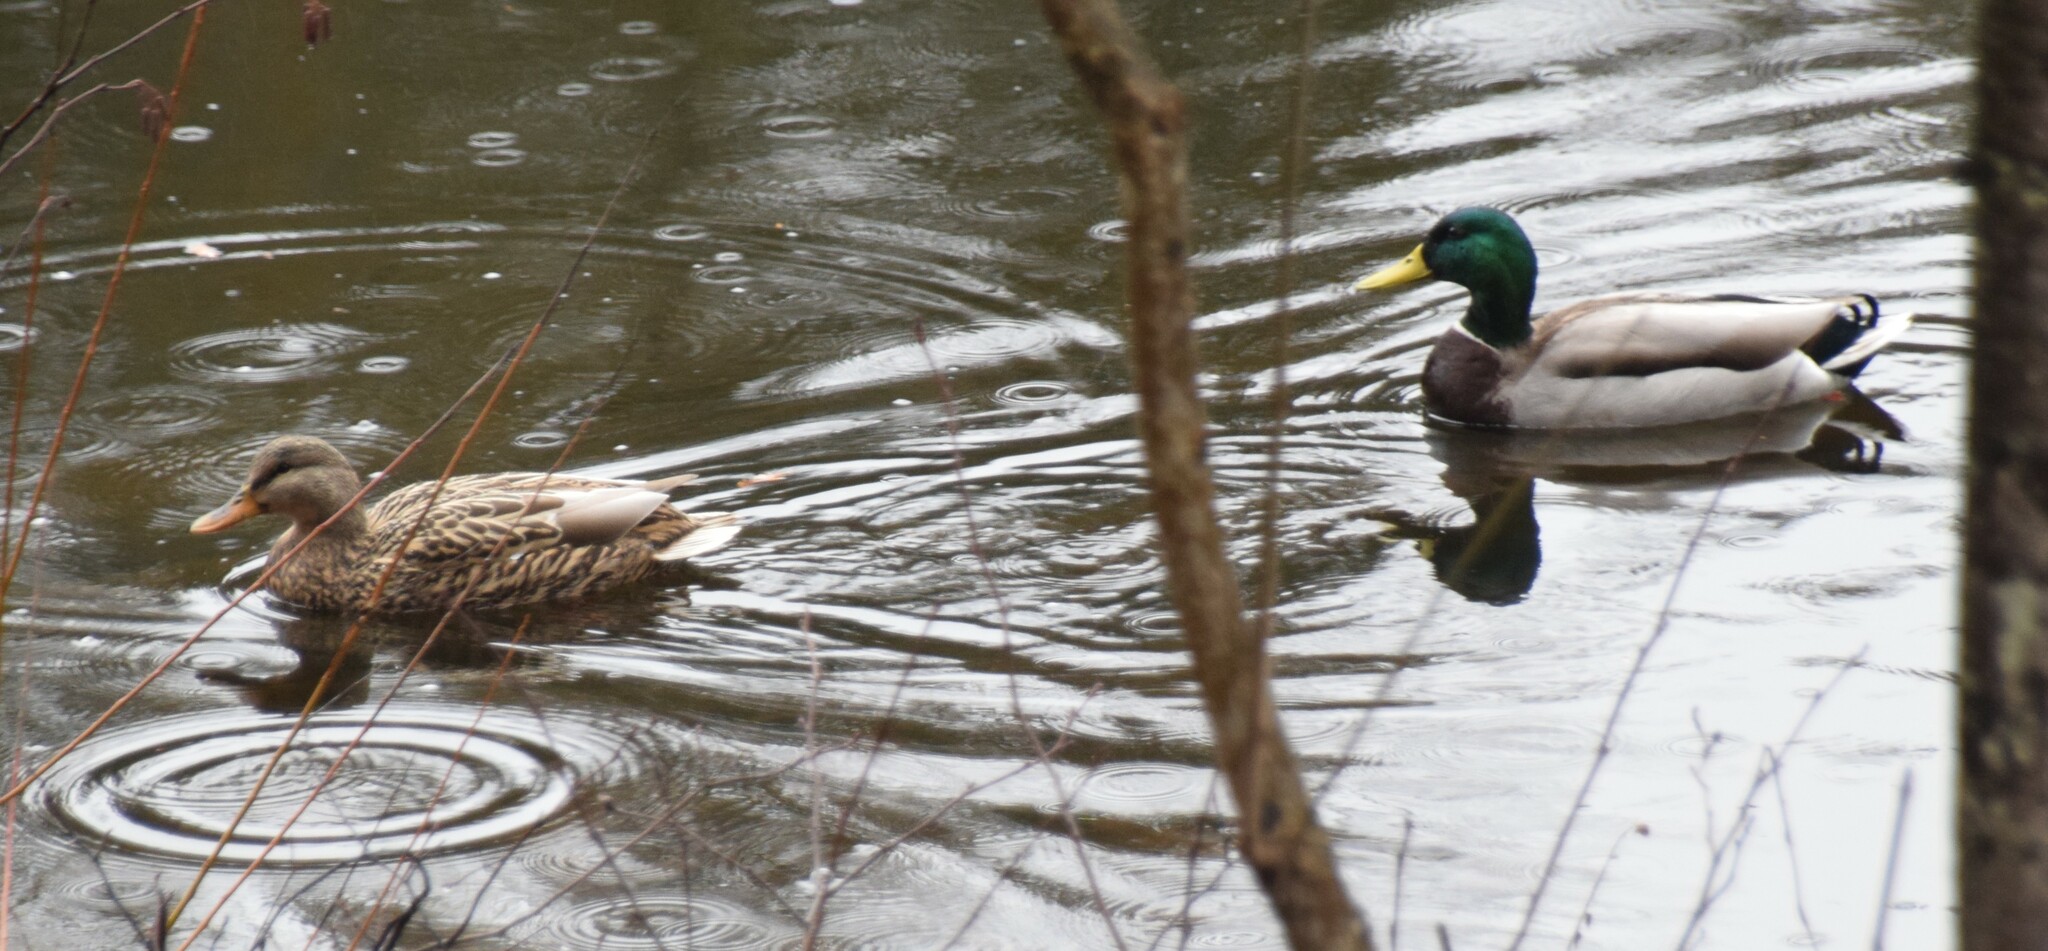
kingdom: Animalia
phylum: Chordata
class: Aves
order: Anseriformes
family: Anatidae
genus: Anas
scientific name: Anas platyrhynchos
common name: Mallard
